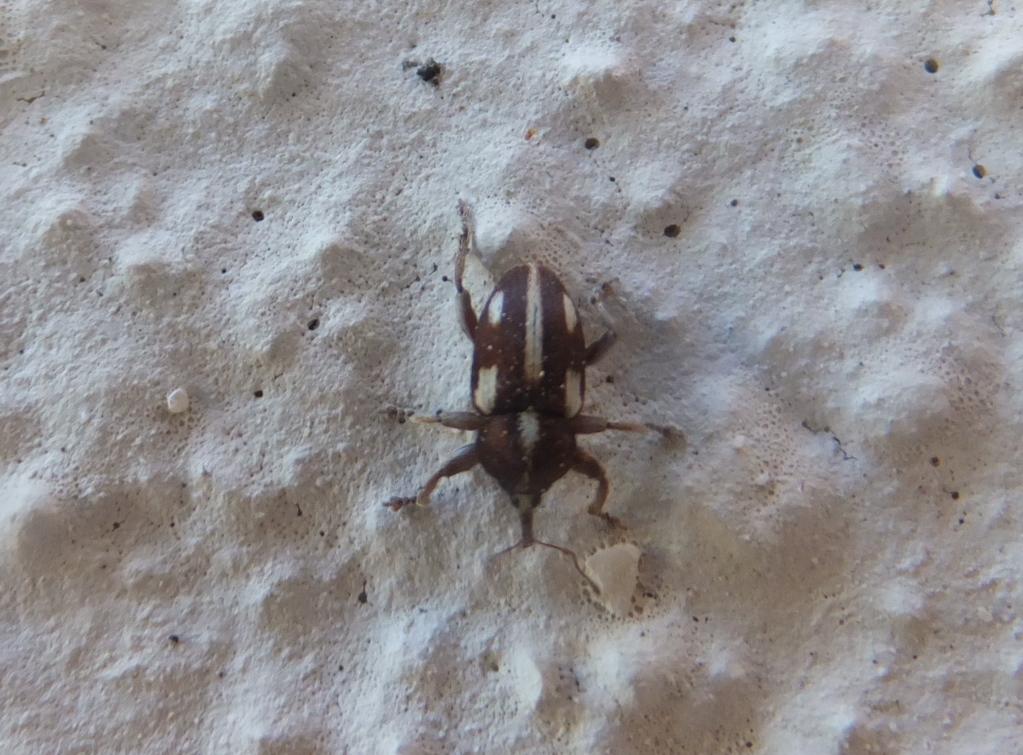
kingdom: Animalia
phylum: Arthropoda
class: Insecta
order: Coleoptera
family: Curculionidae
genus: Tychius
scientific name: Tychius quinquepunctatus
